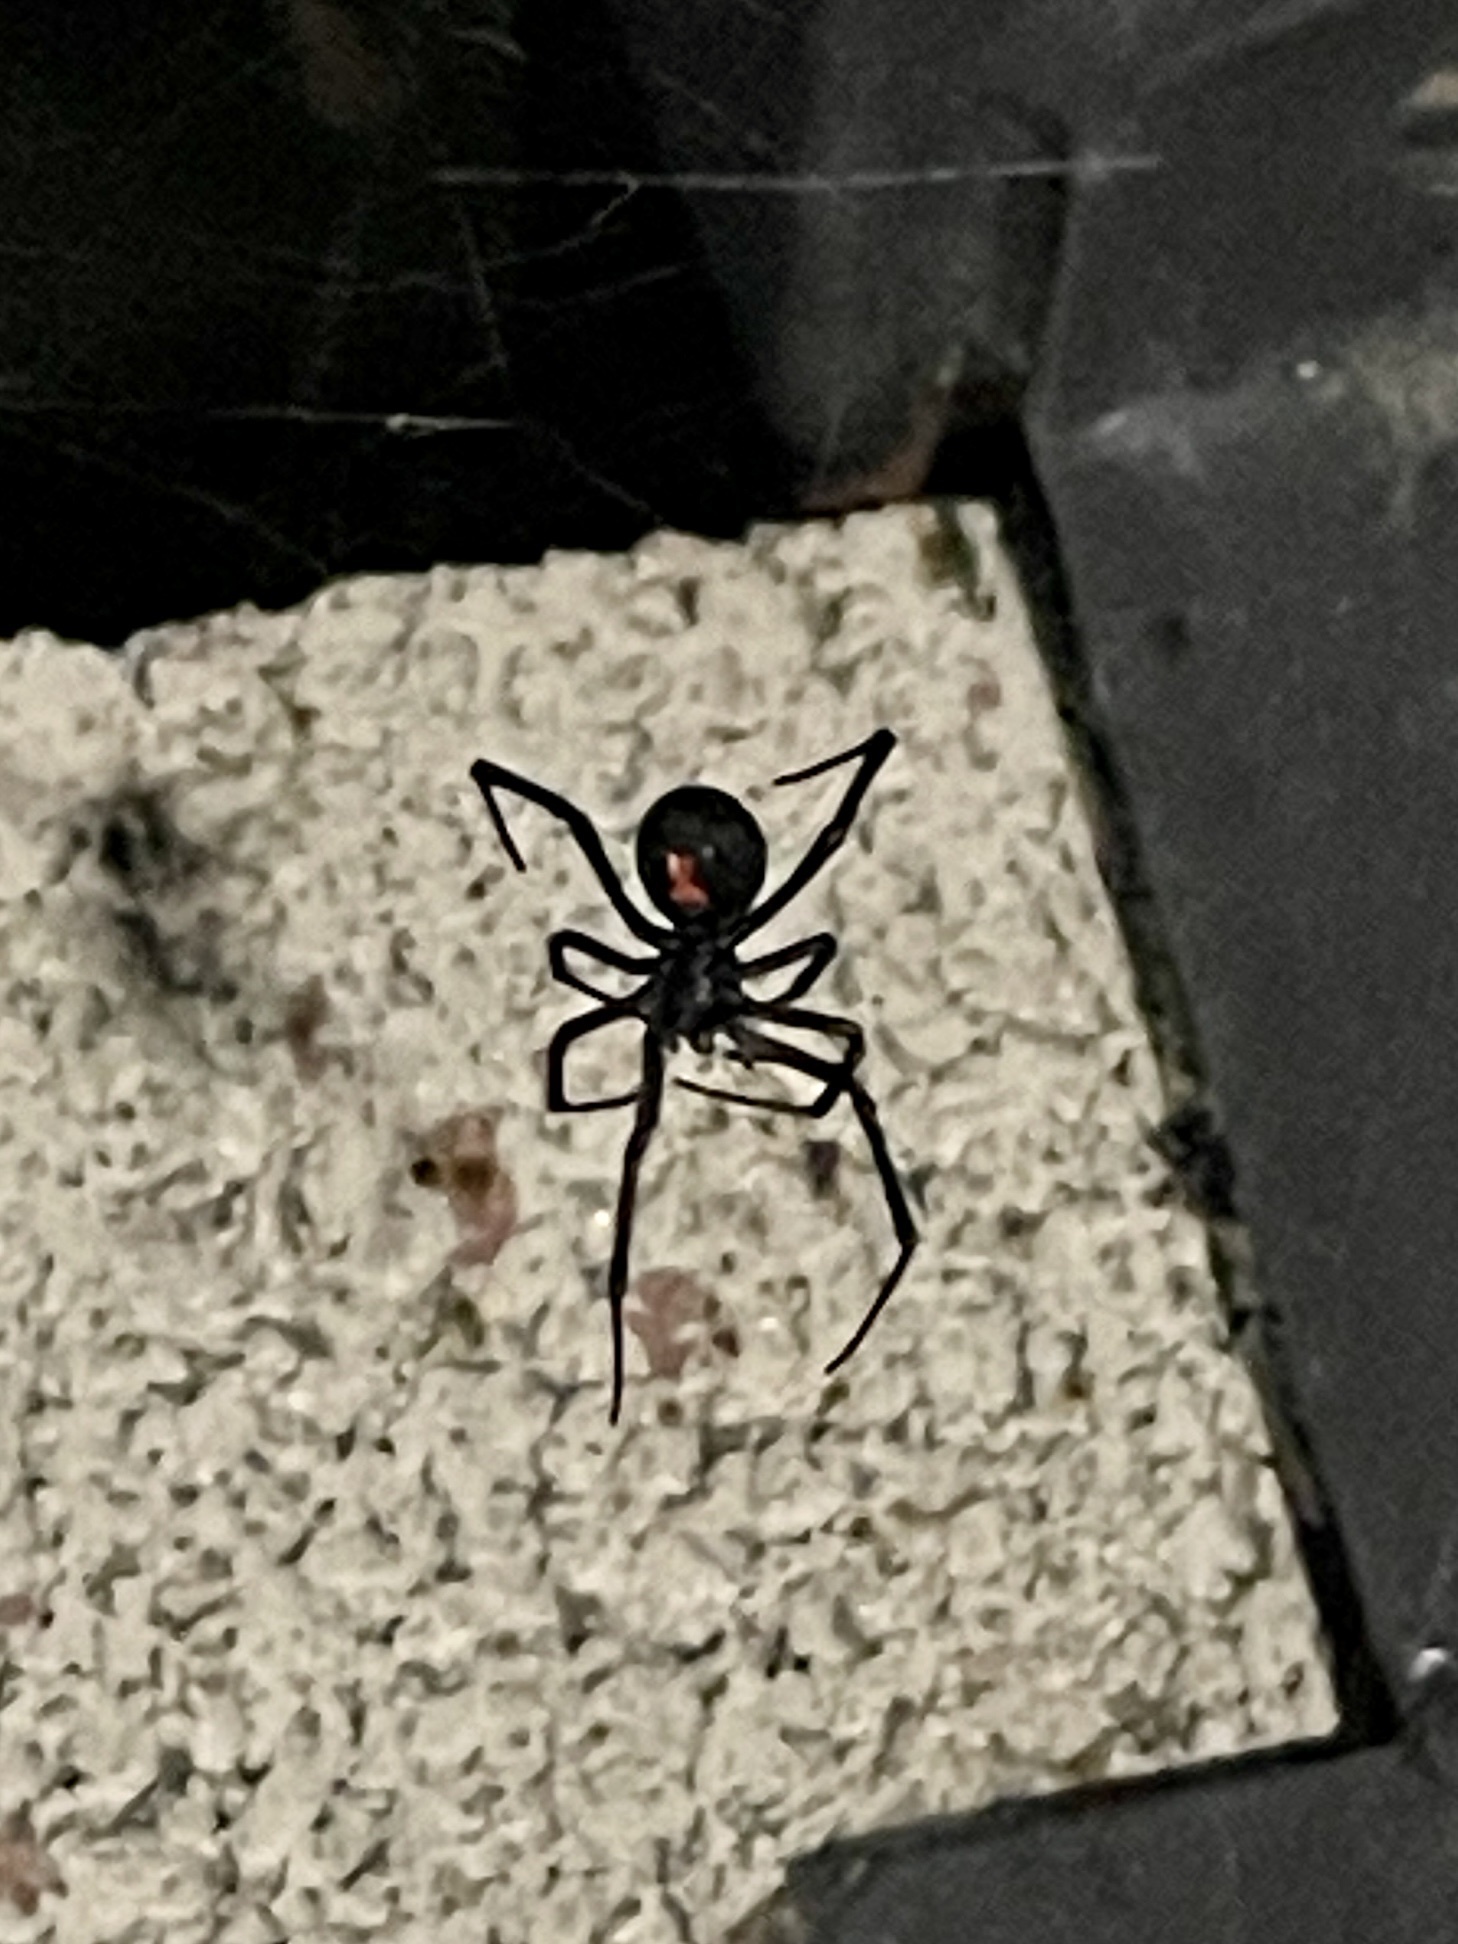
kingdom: Animalia
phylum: Arthropoda
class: Arachnida
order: Araneae
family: Theridiidae
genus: Latrodectus
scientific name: Latrodectus hesperus
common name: Western black widow
